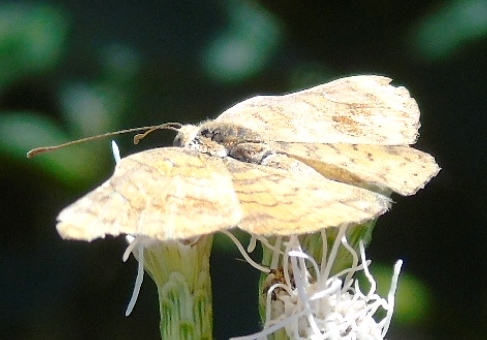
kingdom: Animalia
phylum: Arthropoda
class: Insecta
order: Lepidoptera
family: Riodinidae
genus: Curvie
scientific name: Curvie emesia
